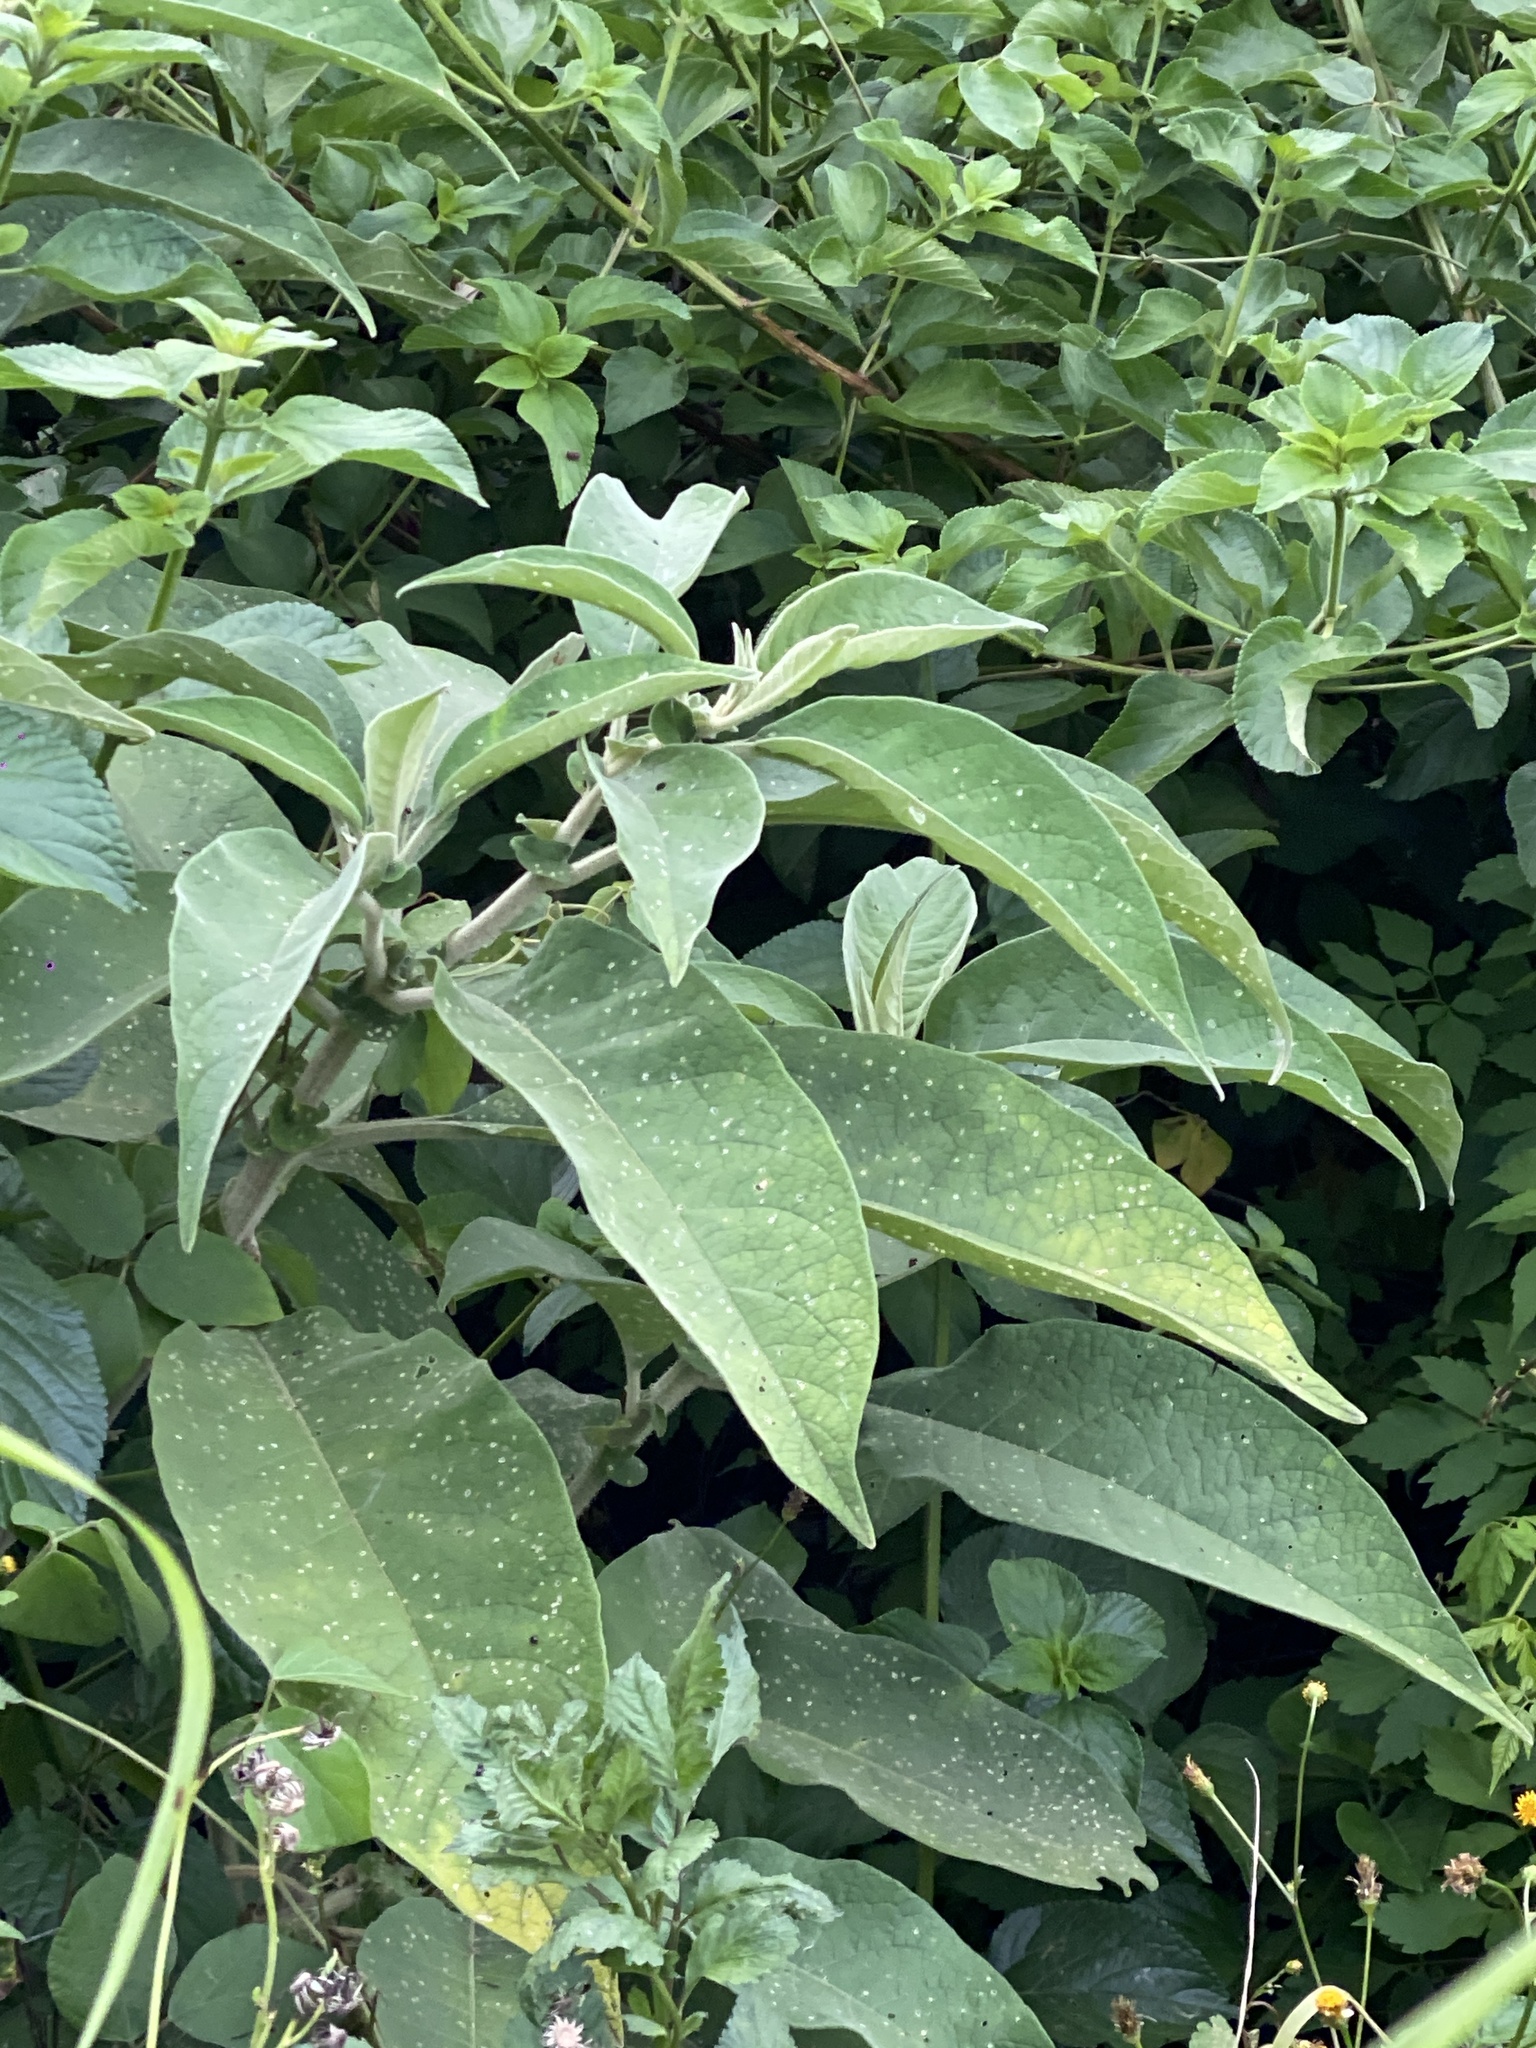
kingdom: Plantae
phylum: Tracheophyta
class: Magnoliopsida
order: Solanales
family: Solanaceae
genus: Solanum
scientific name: Solanum mauritianum
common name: Earleaf nightshade
